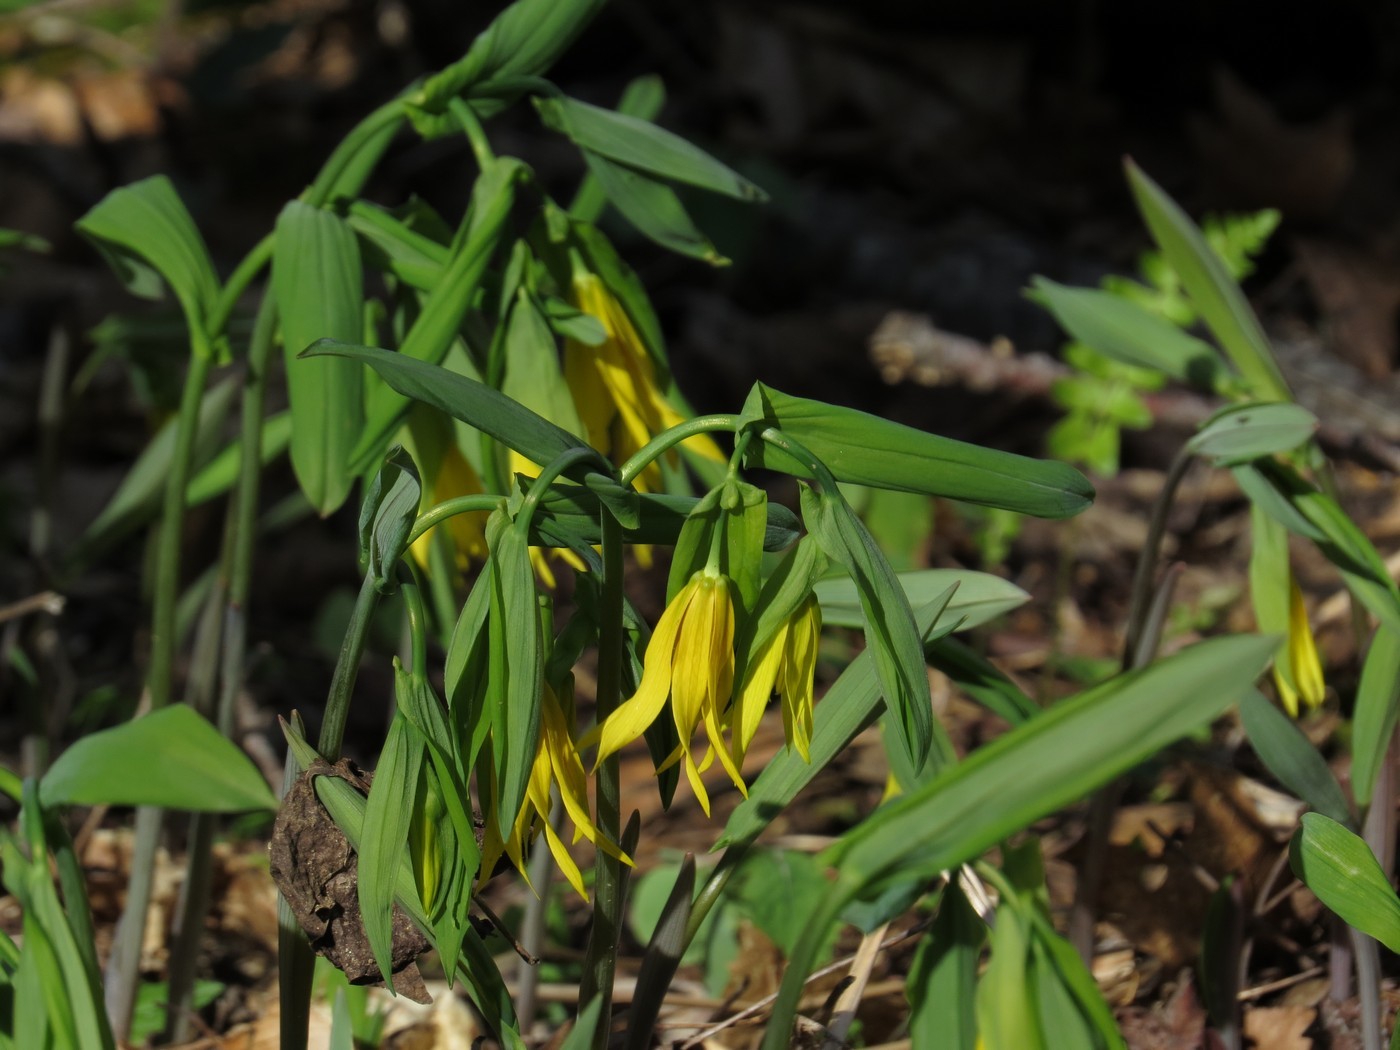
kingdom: Plantae
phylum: Tracheophyta
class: Liliopsida
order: Liliales
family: Colchicaceae
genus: Uvularia
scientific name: Uvularia grandiflora
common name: Bellwort
